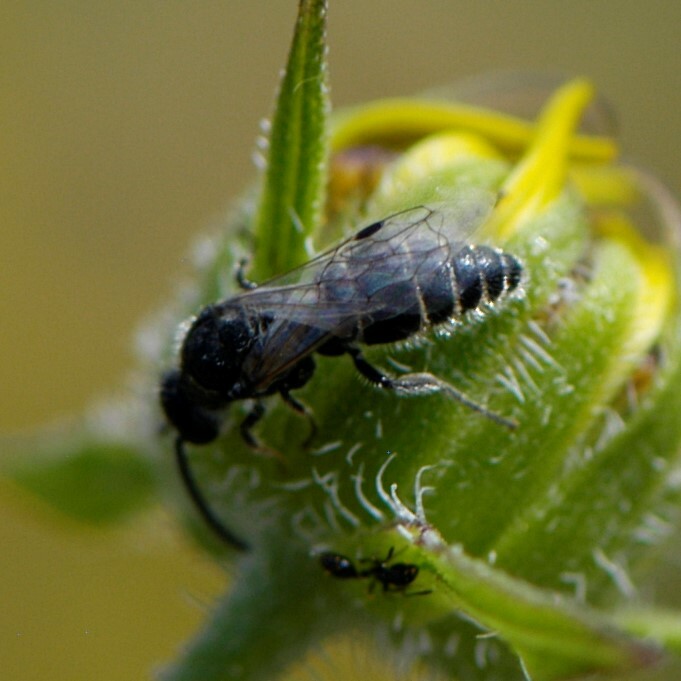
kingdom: Animalia
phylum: Arthropoda
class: Insecta
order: Hymenoptera
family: Tiphiidae
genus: Paratiphia
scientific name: Paratiphia
